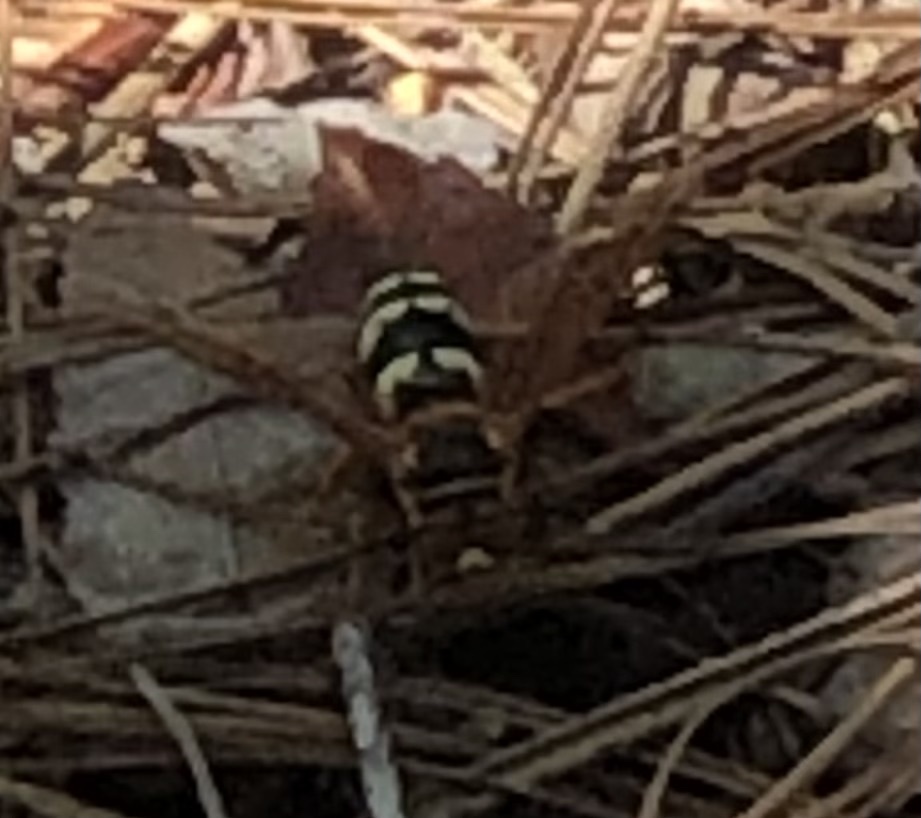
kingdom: Animalia
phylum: Arthropoda
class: Insecta
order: Hymenoptera
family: Crabronidae
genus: Sphecius
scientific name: Sphecius speciosus
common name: Cicada killer
